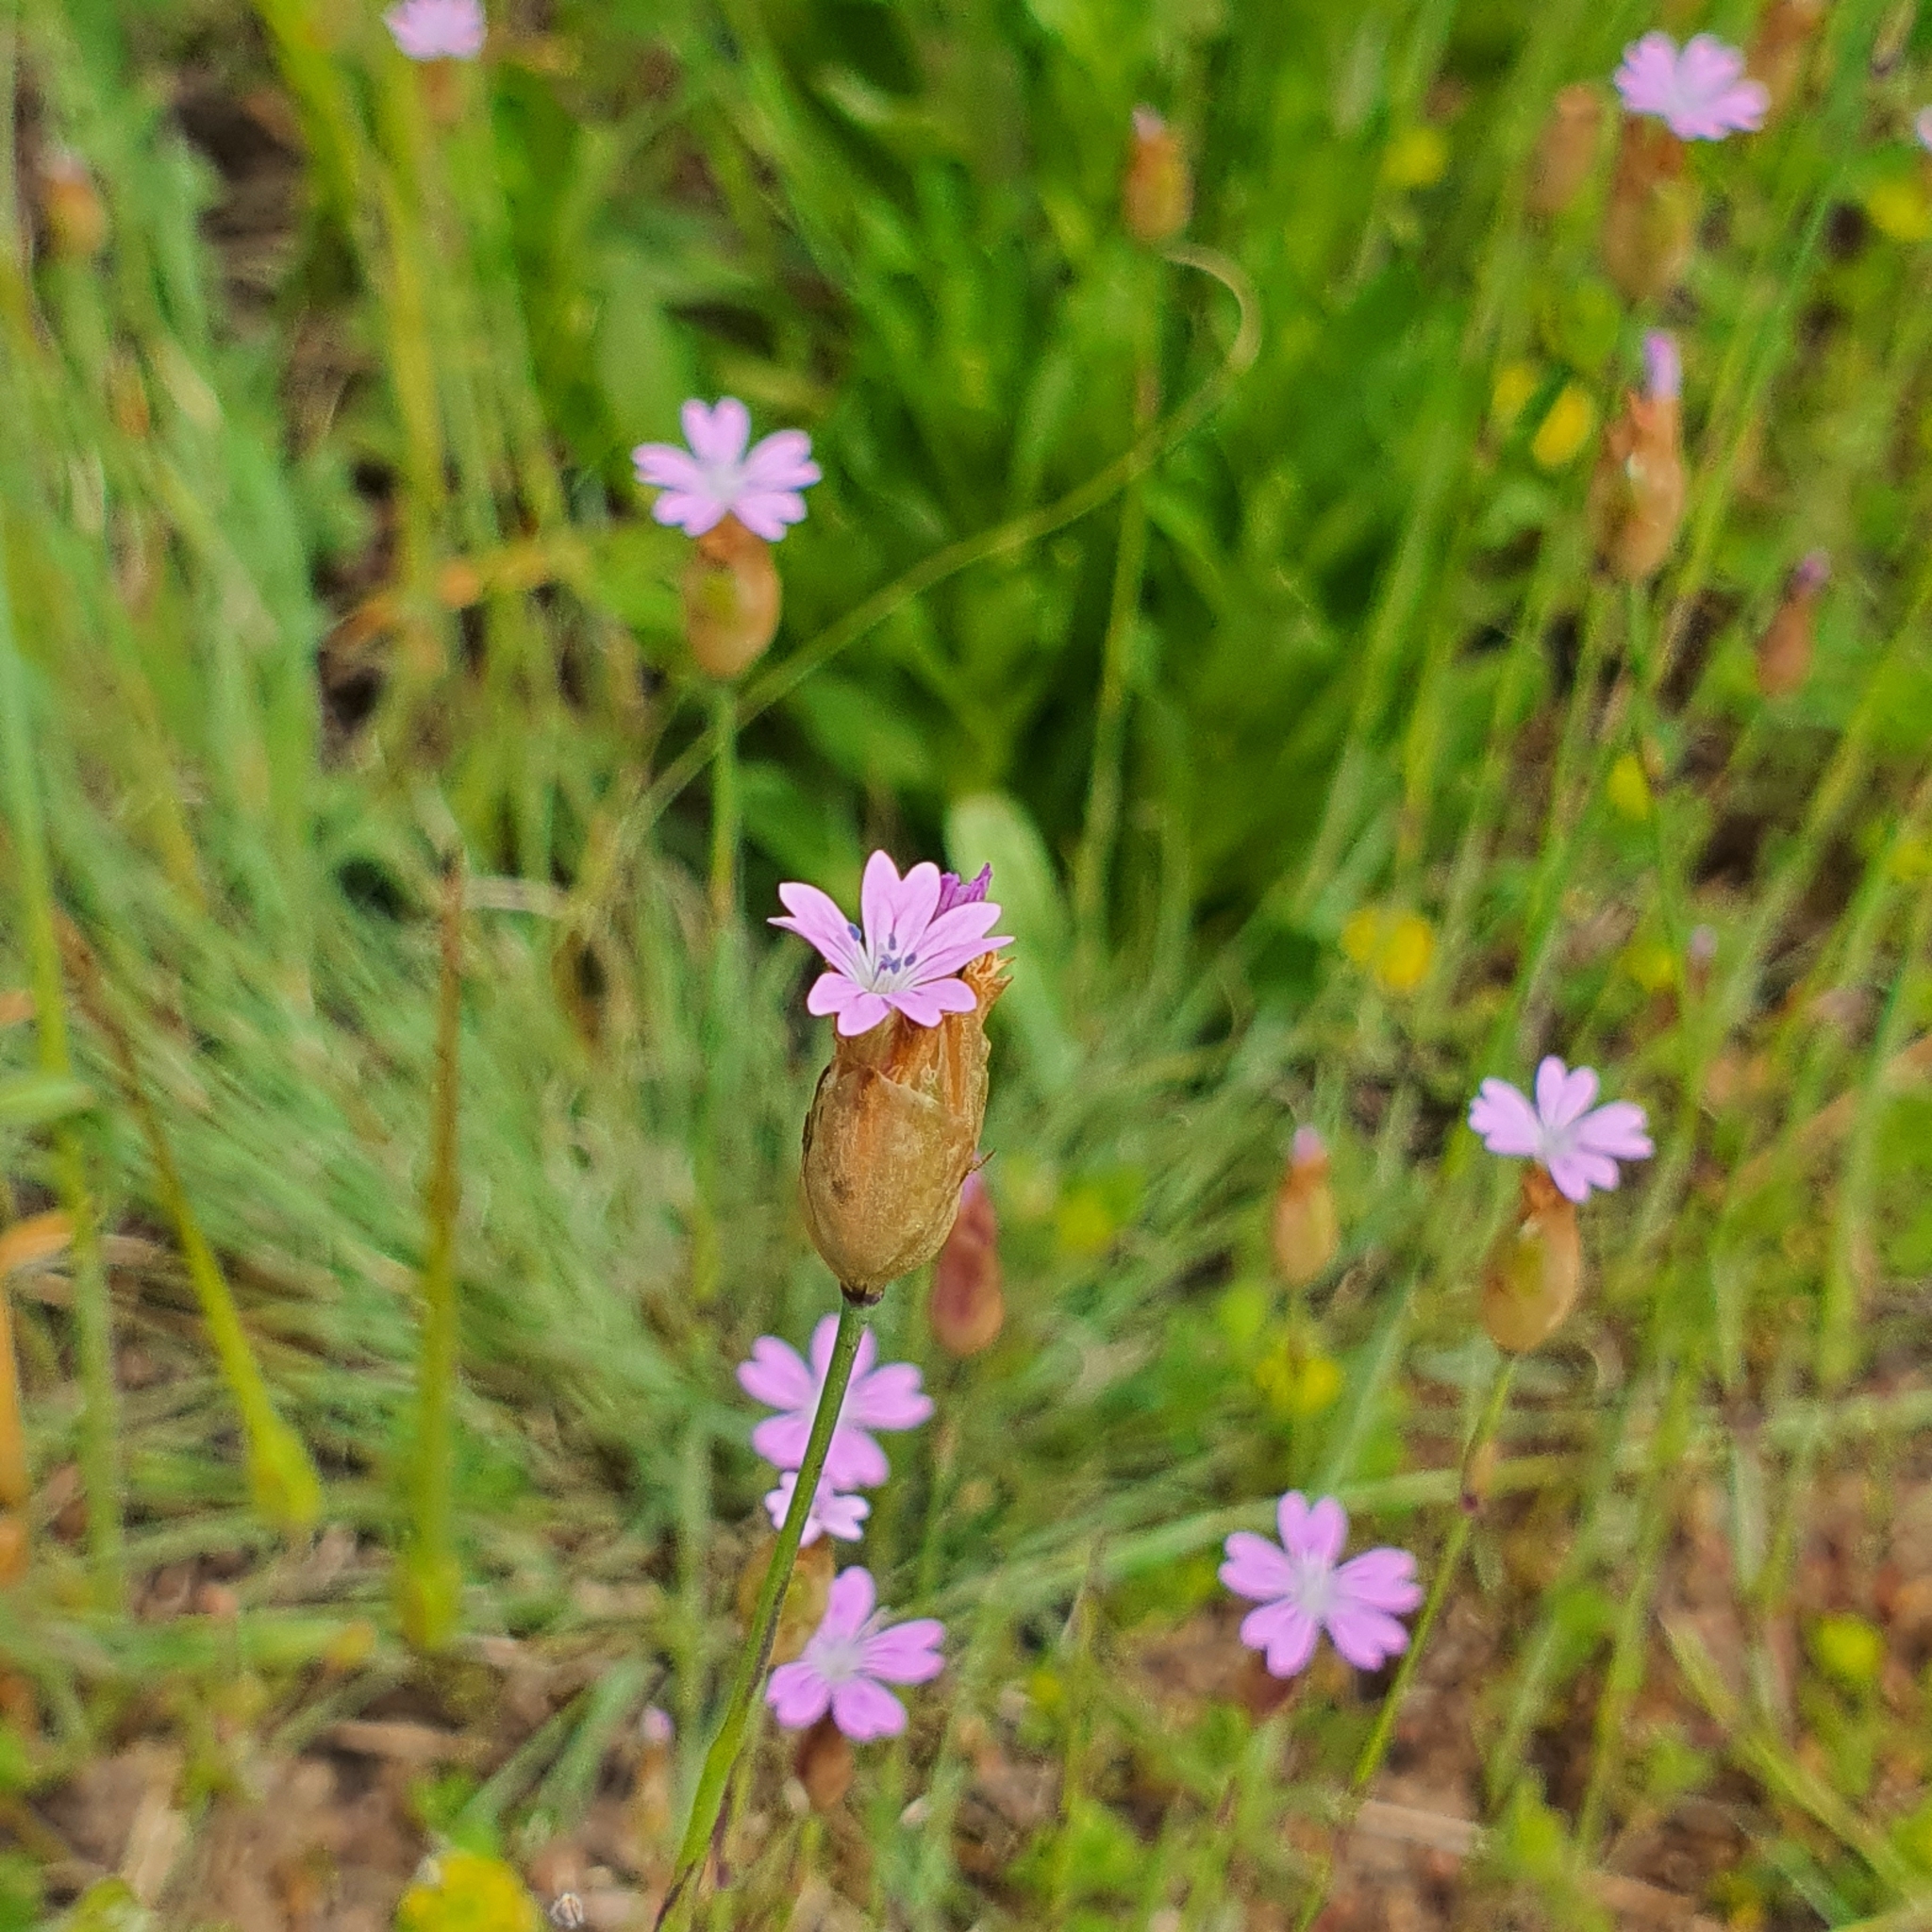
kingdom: Plantae
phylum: Tracheophyta
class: Magnoliopsida
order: Caryophyllales
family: Caryophyllaceae
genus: Petrorhagia
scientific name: Petrorhagia
